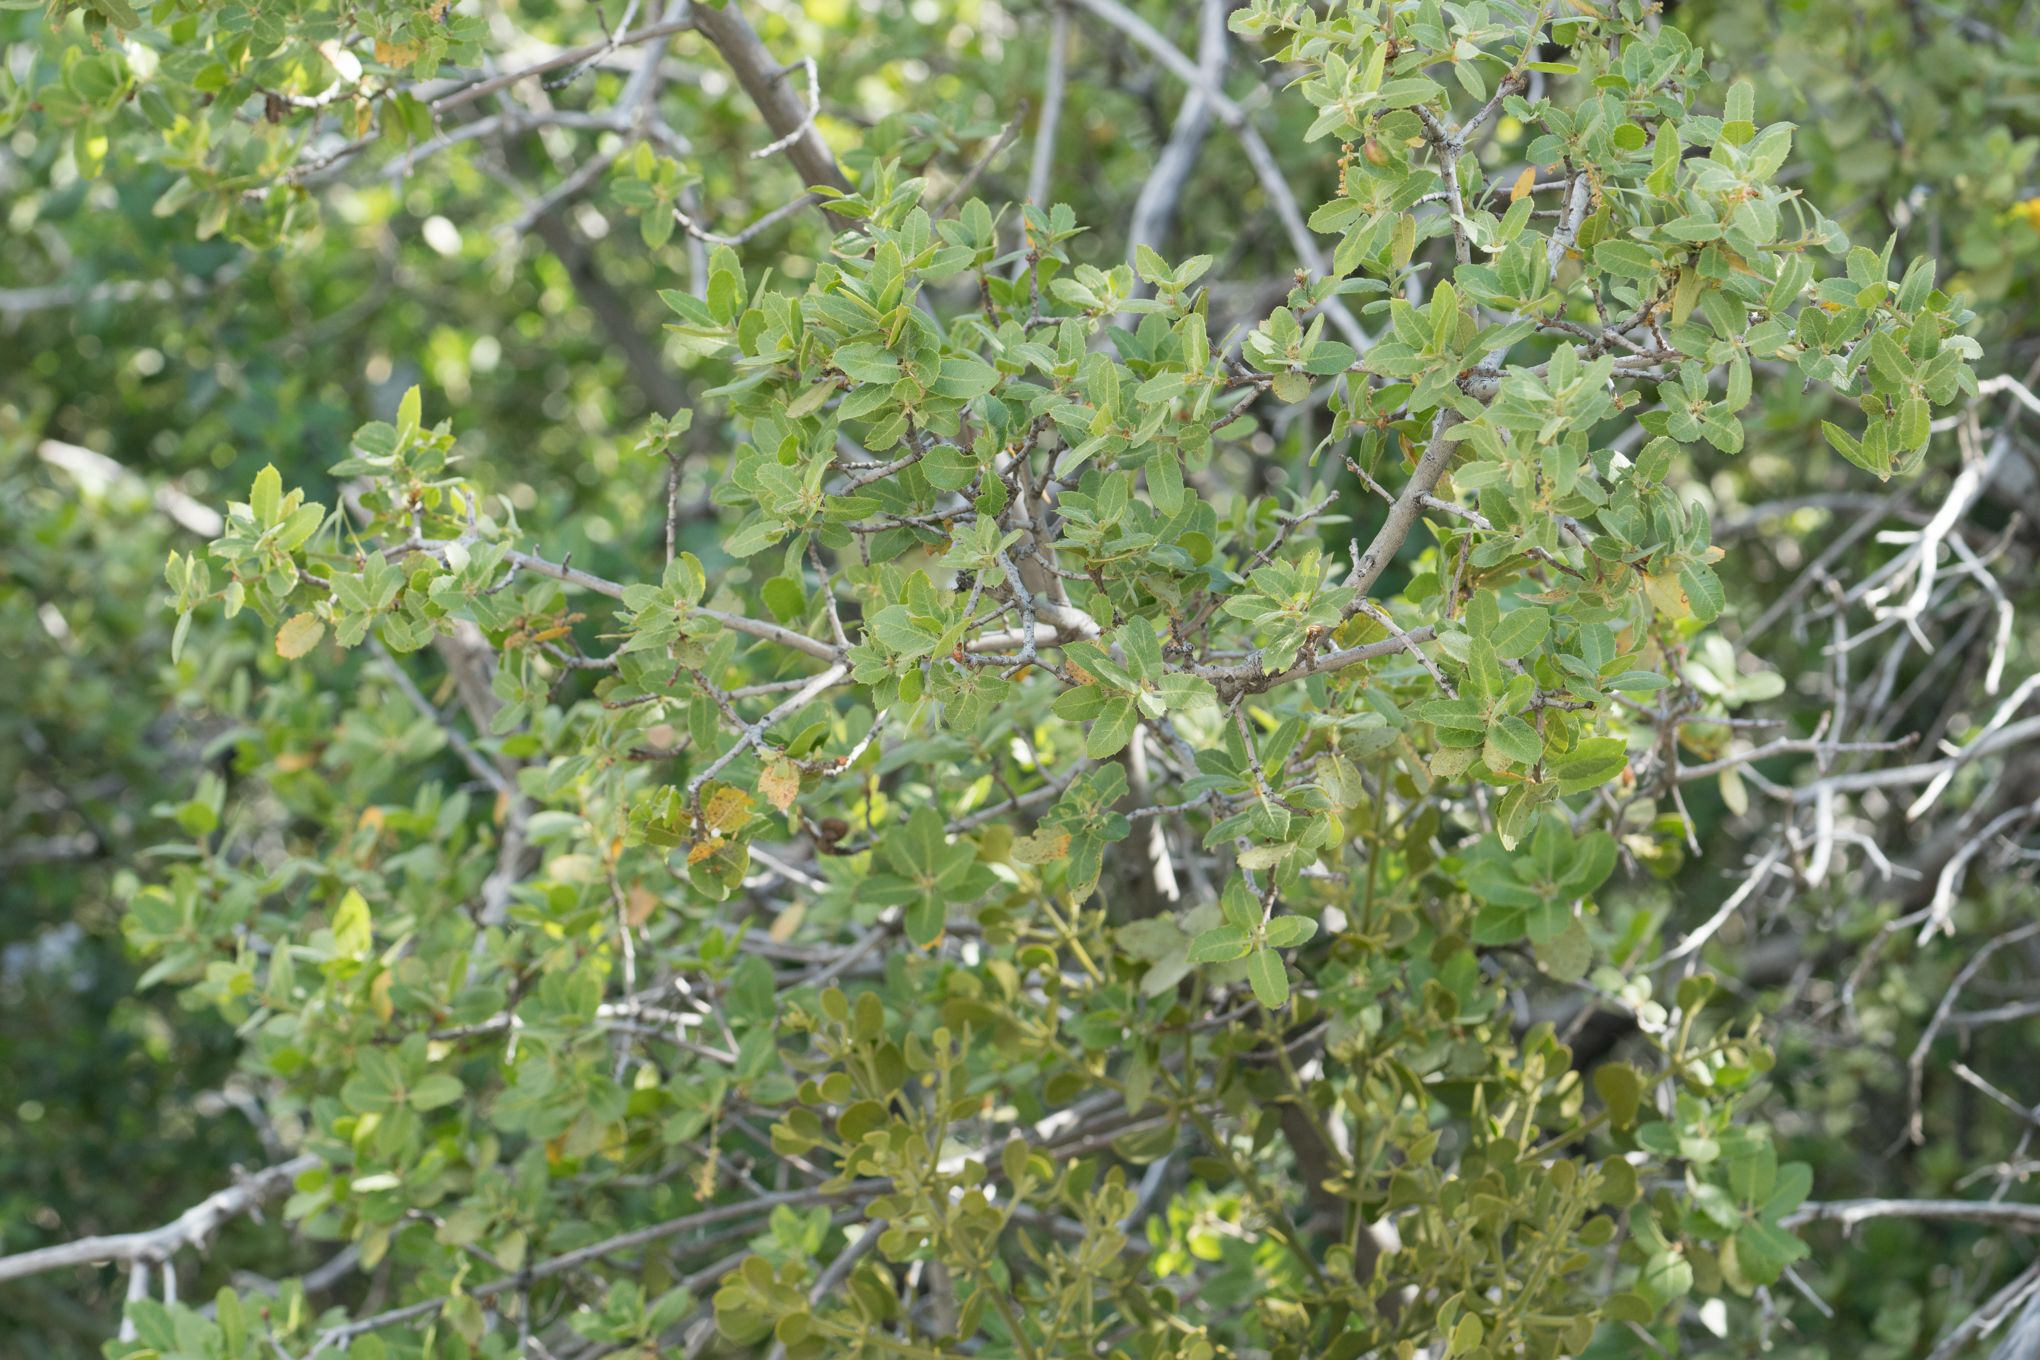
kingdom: Plantae
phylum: Tracheophyta
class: Magnoliopsida
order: Fagales
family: Fagaceae
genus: Quercus
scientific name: Quercus wislizeni
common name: Interior live oak
